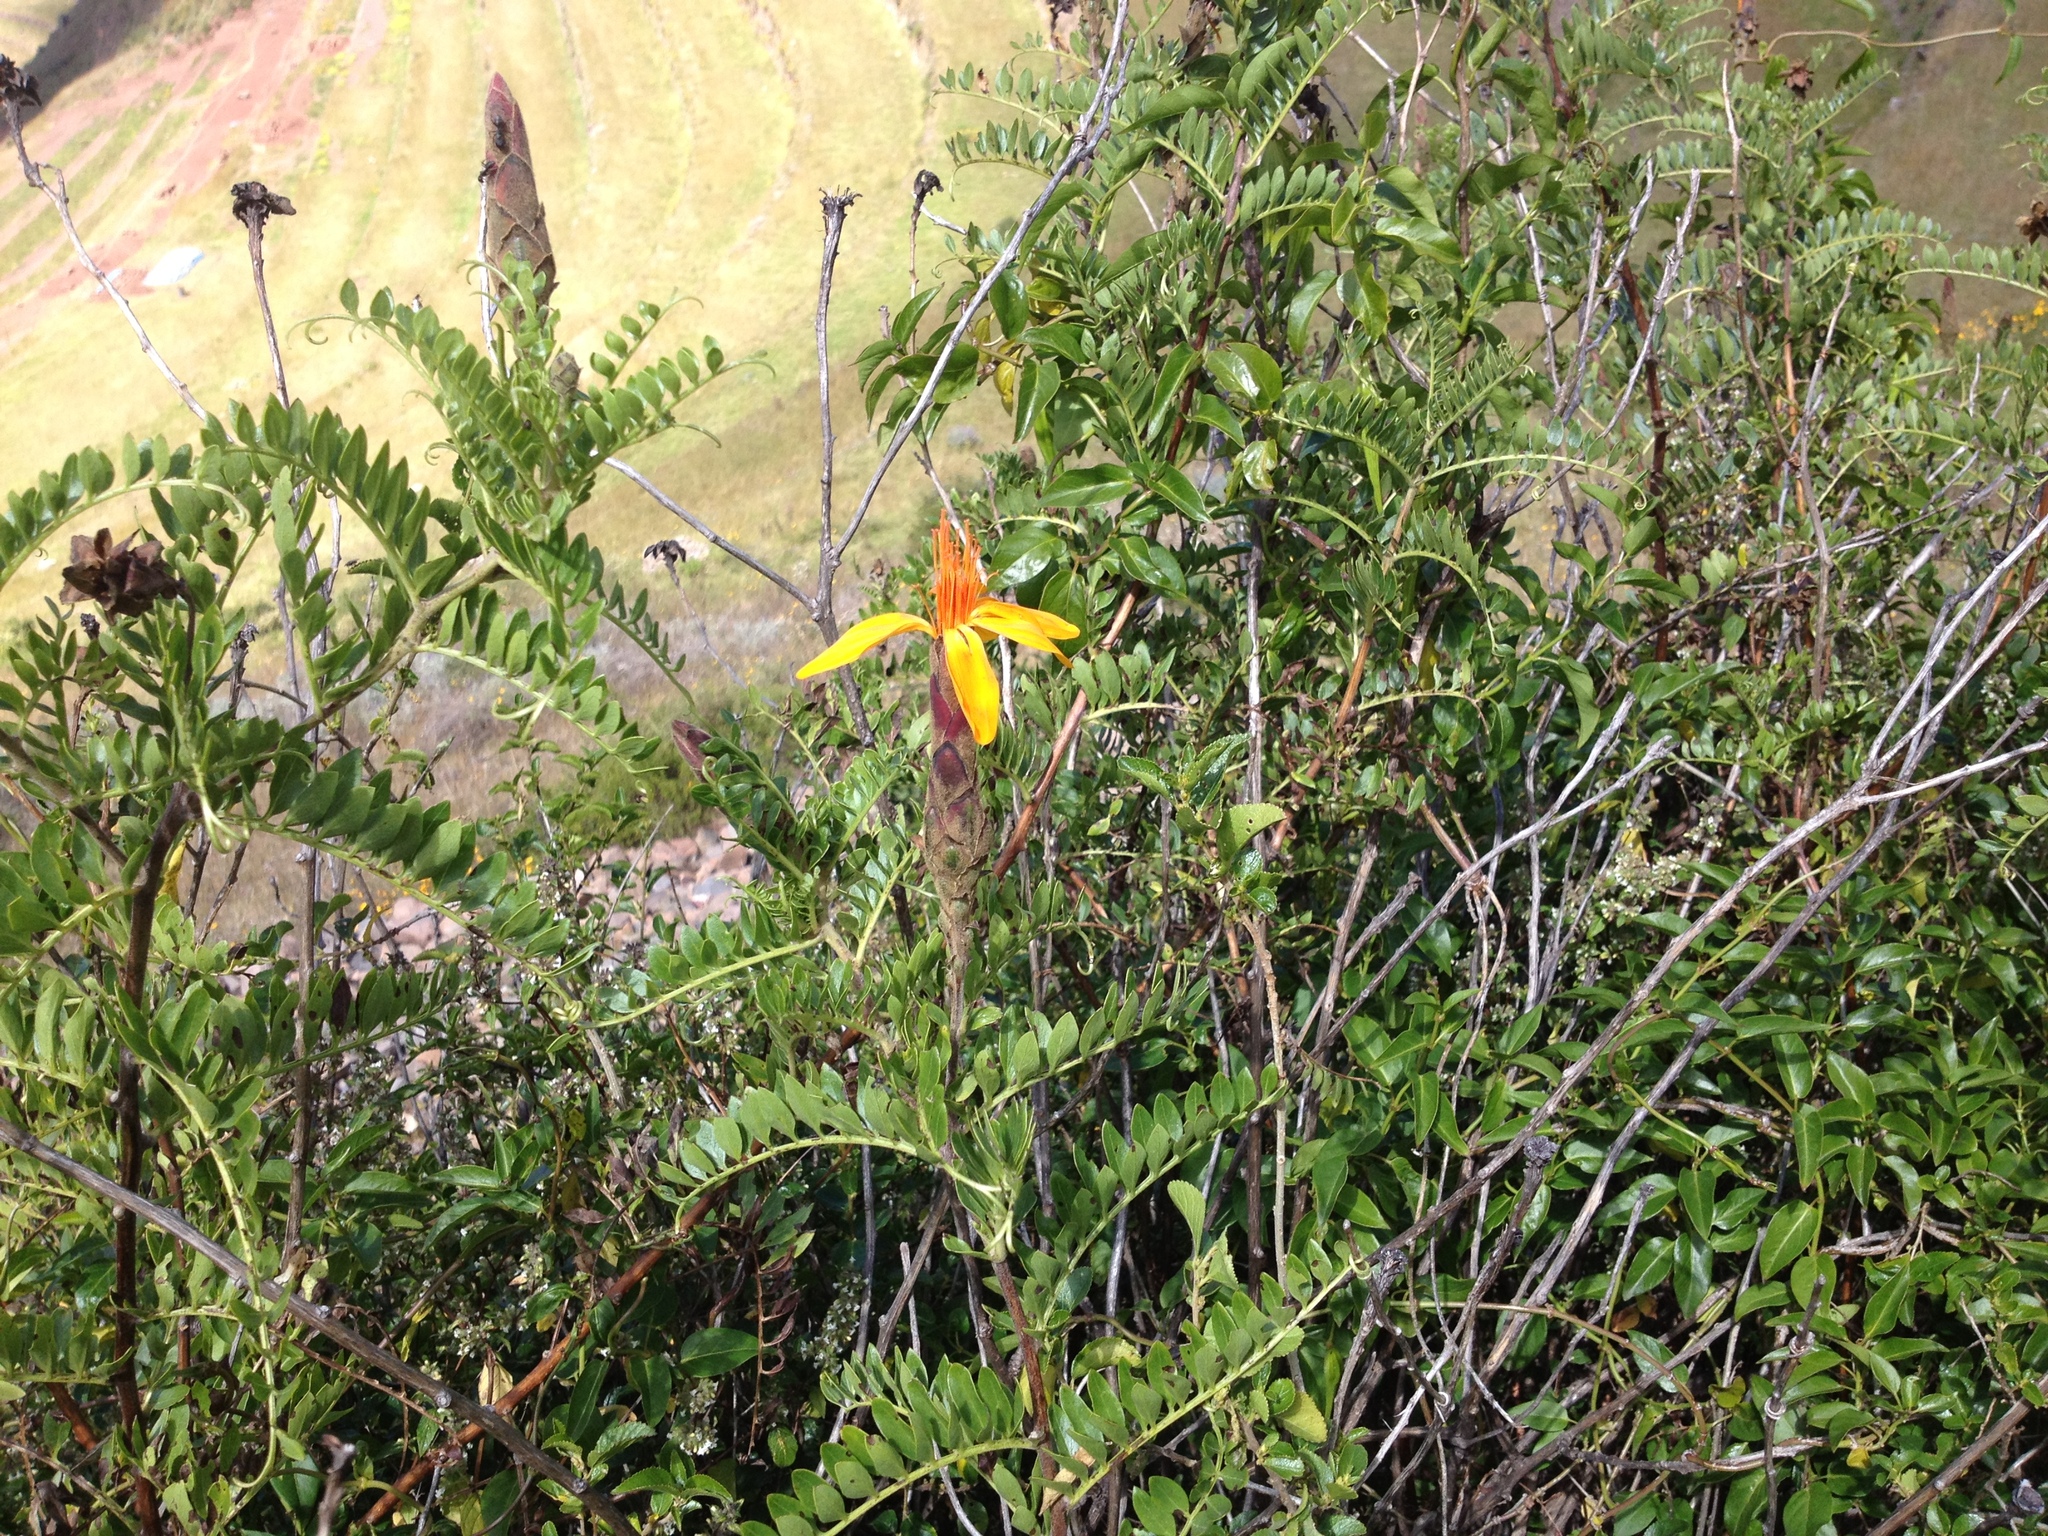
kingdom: Plantae
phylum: Tracheophyta
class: Magnoliopsida
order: Asterales
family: Asteraceae
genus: Mutisia
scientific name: Mutisia acuminata
